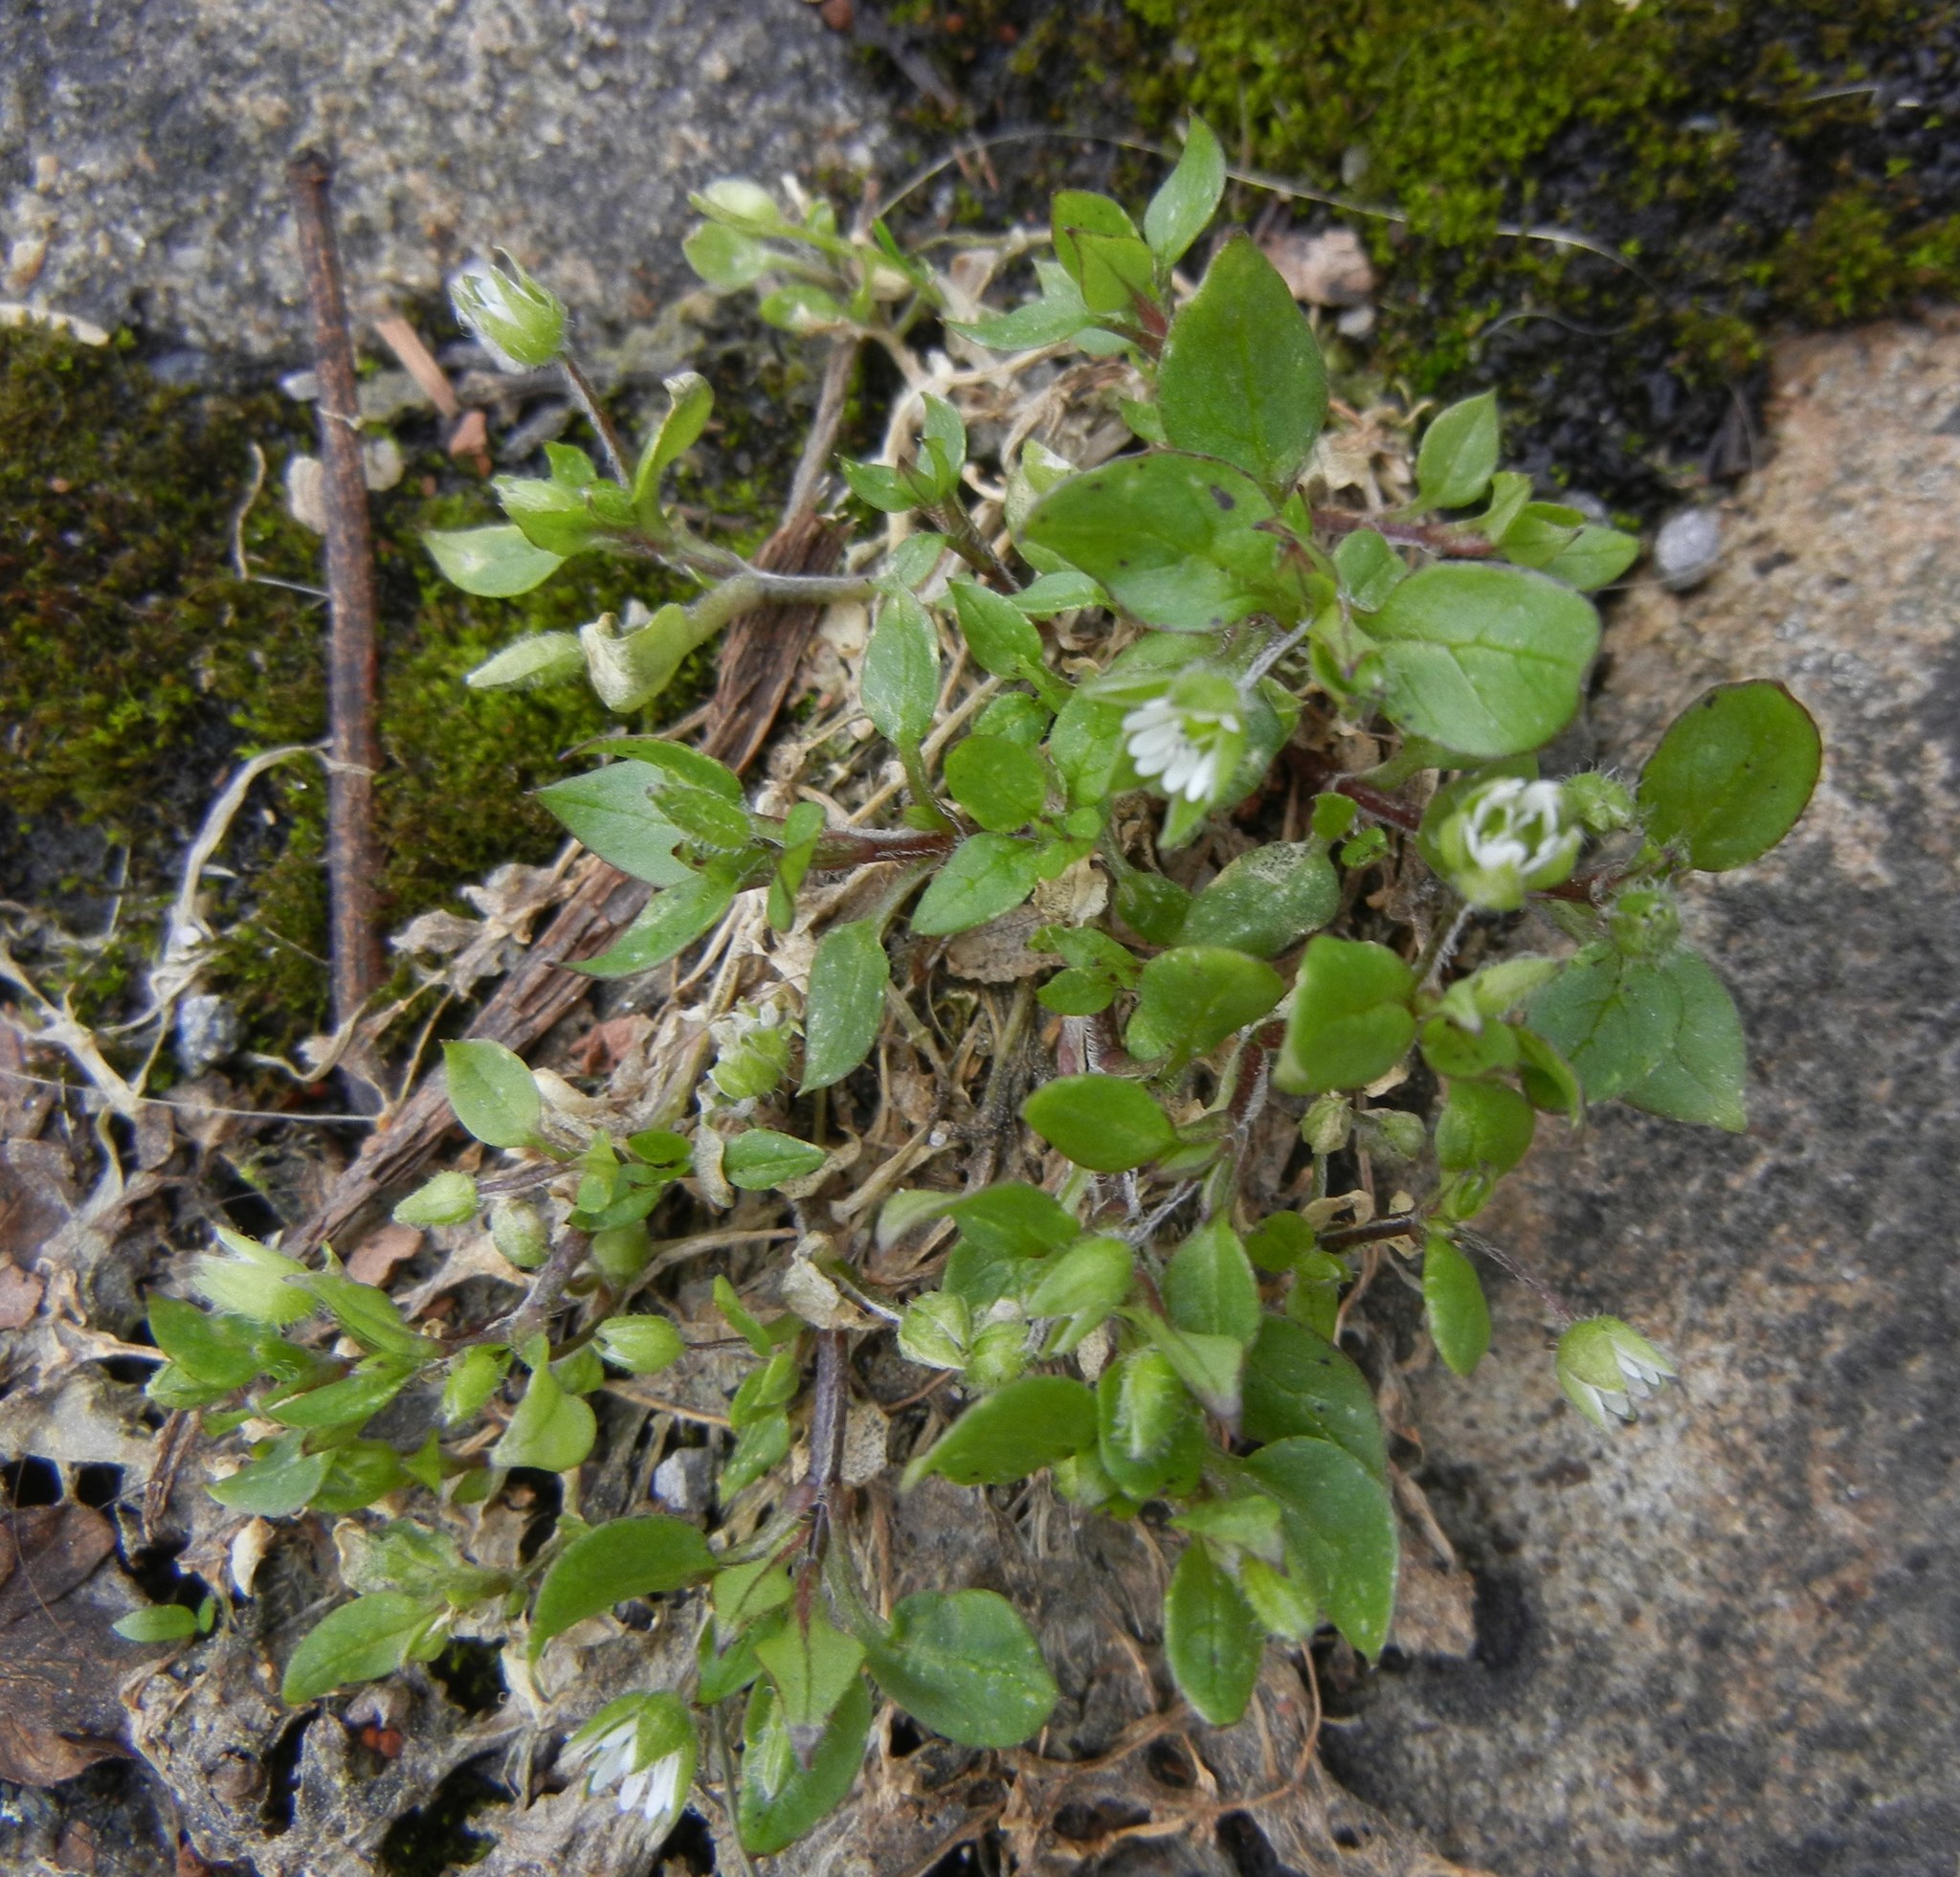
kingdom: Plantae
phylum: Tracheophyta
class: Magnoliopsida
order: Caryophyllales
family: Caryophyllaceae
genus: Stellaria
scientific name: Stellaria media
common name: Common chickweed
